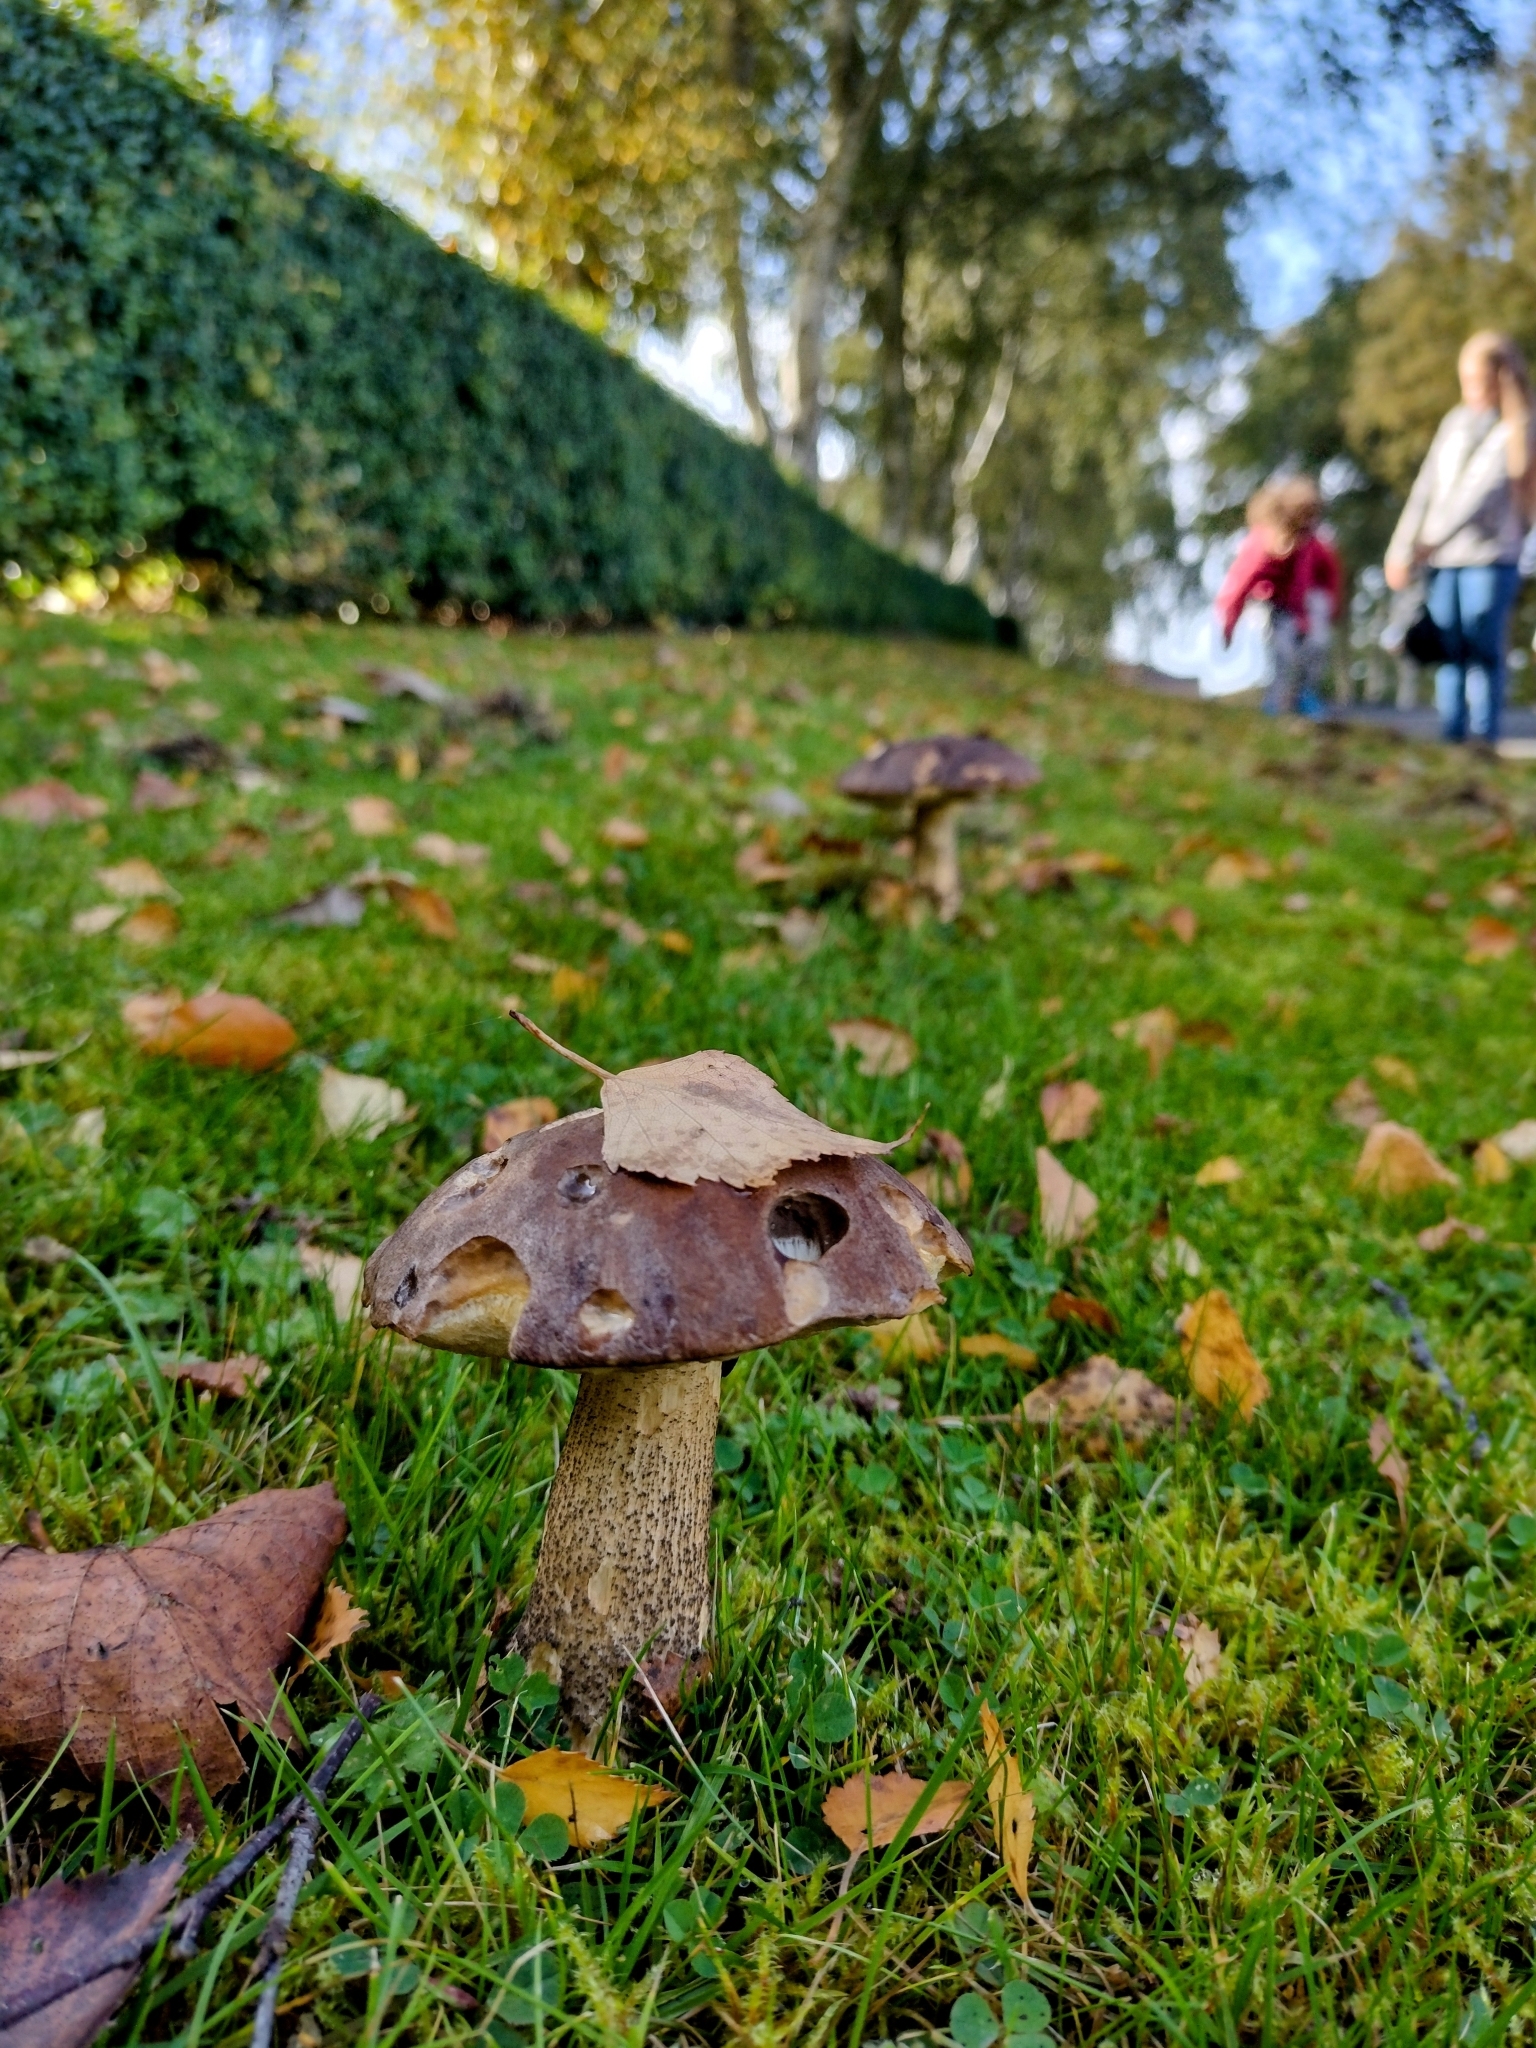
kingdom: Fungi
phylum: Basidiomycota
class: Agaricomycetes
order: Boletales
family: Boletaceae
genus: Leccinum
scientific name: Leccinum scabrum
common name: Blushing bolete
